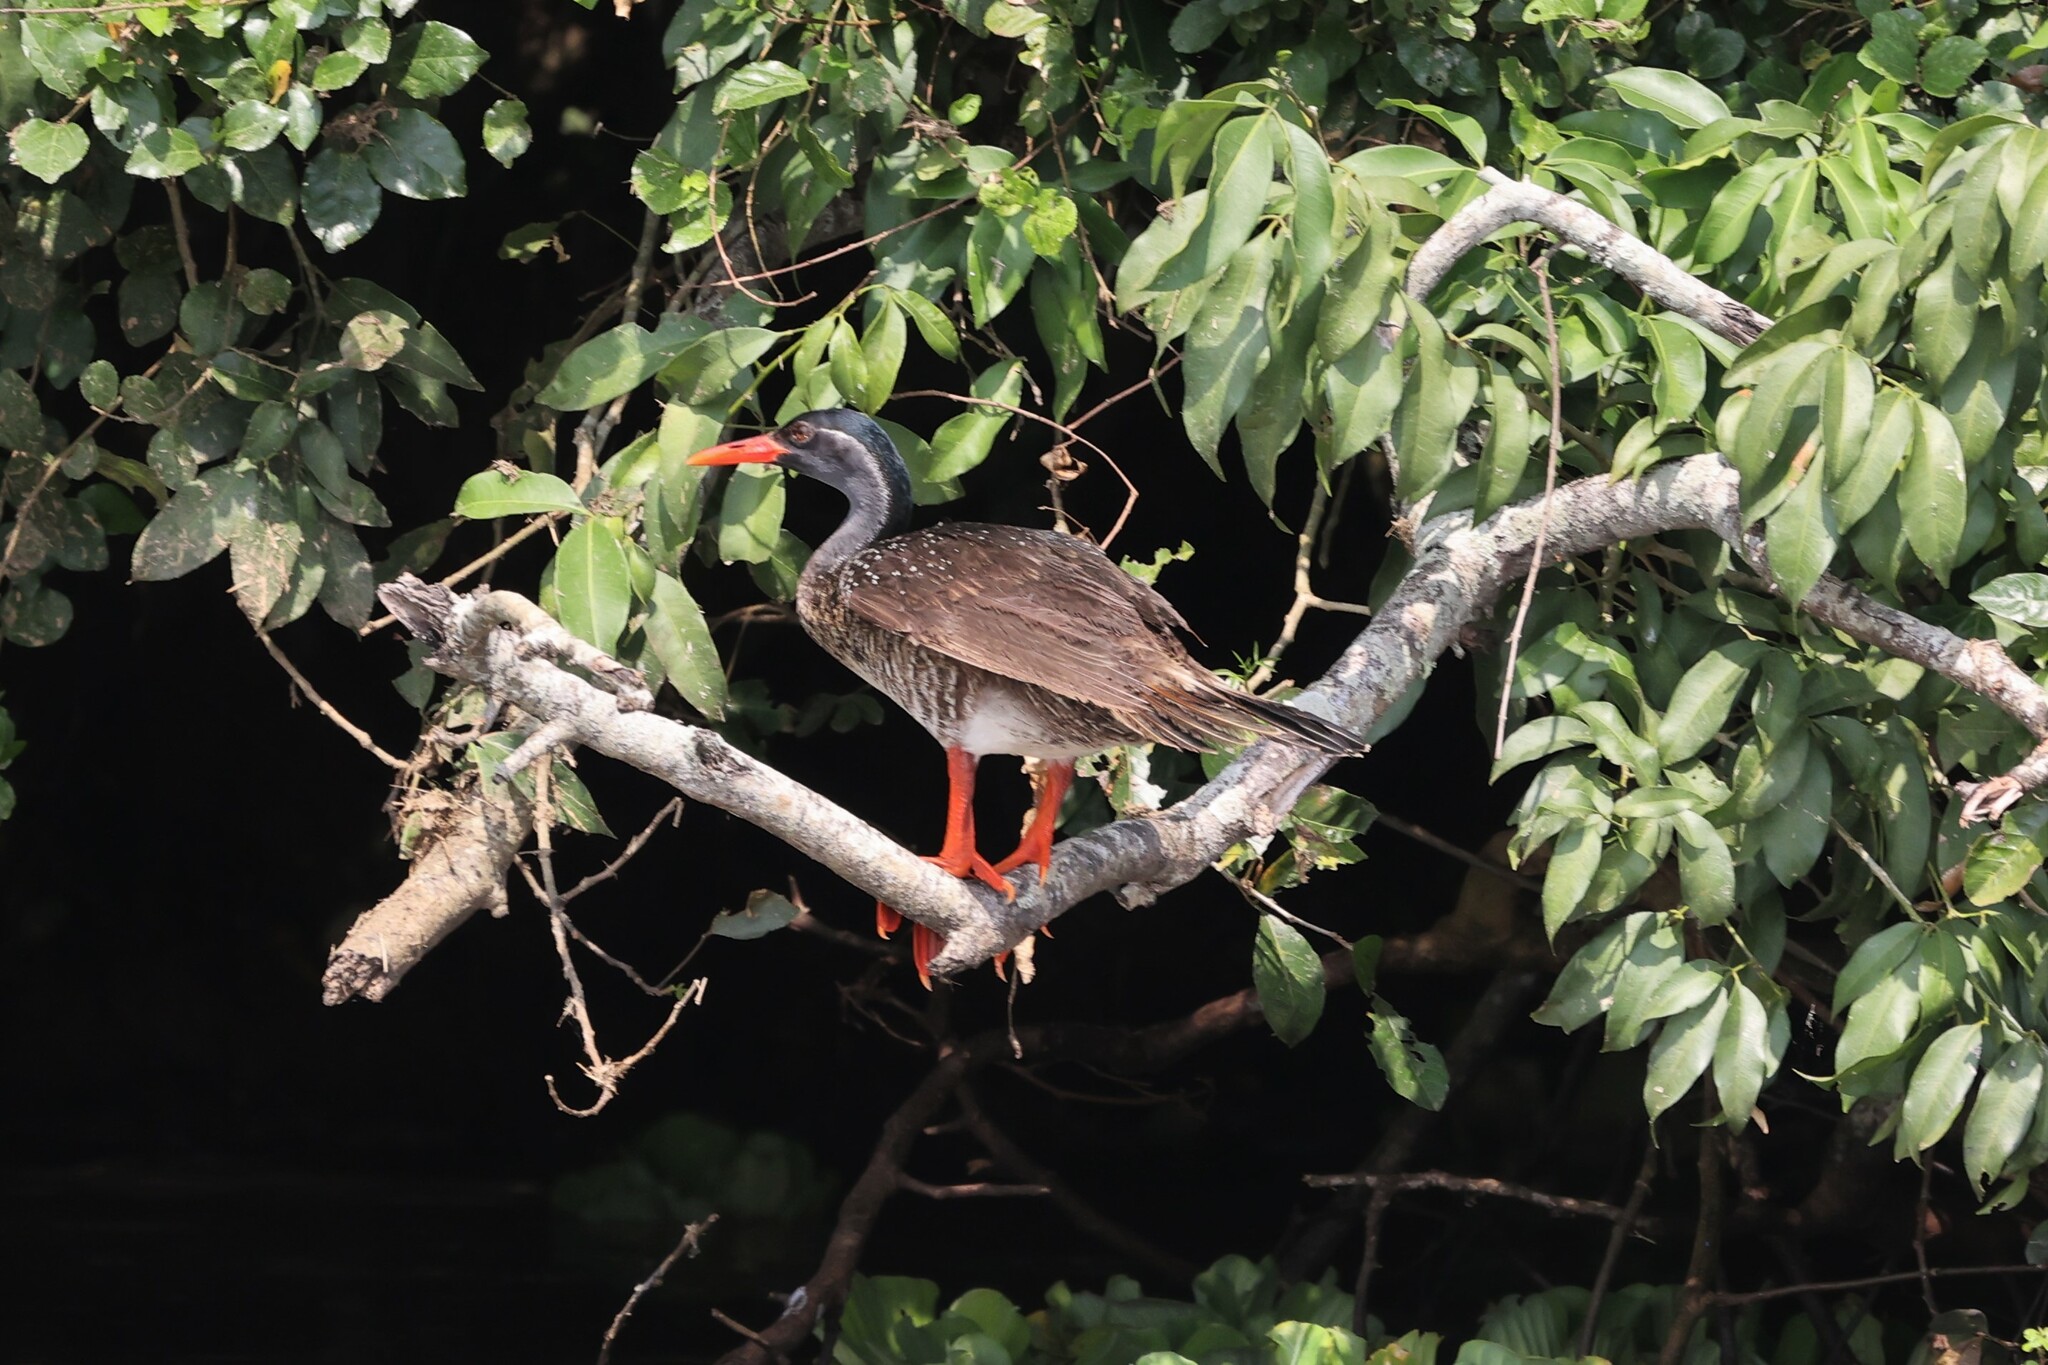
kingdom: Animalia
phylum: Chordata
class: Aves
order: Gruiformes
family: Heliornithidae
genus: Podica
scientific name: Podica senegalensis
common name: African finfoot
